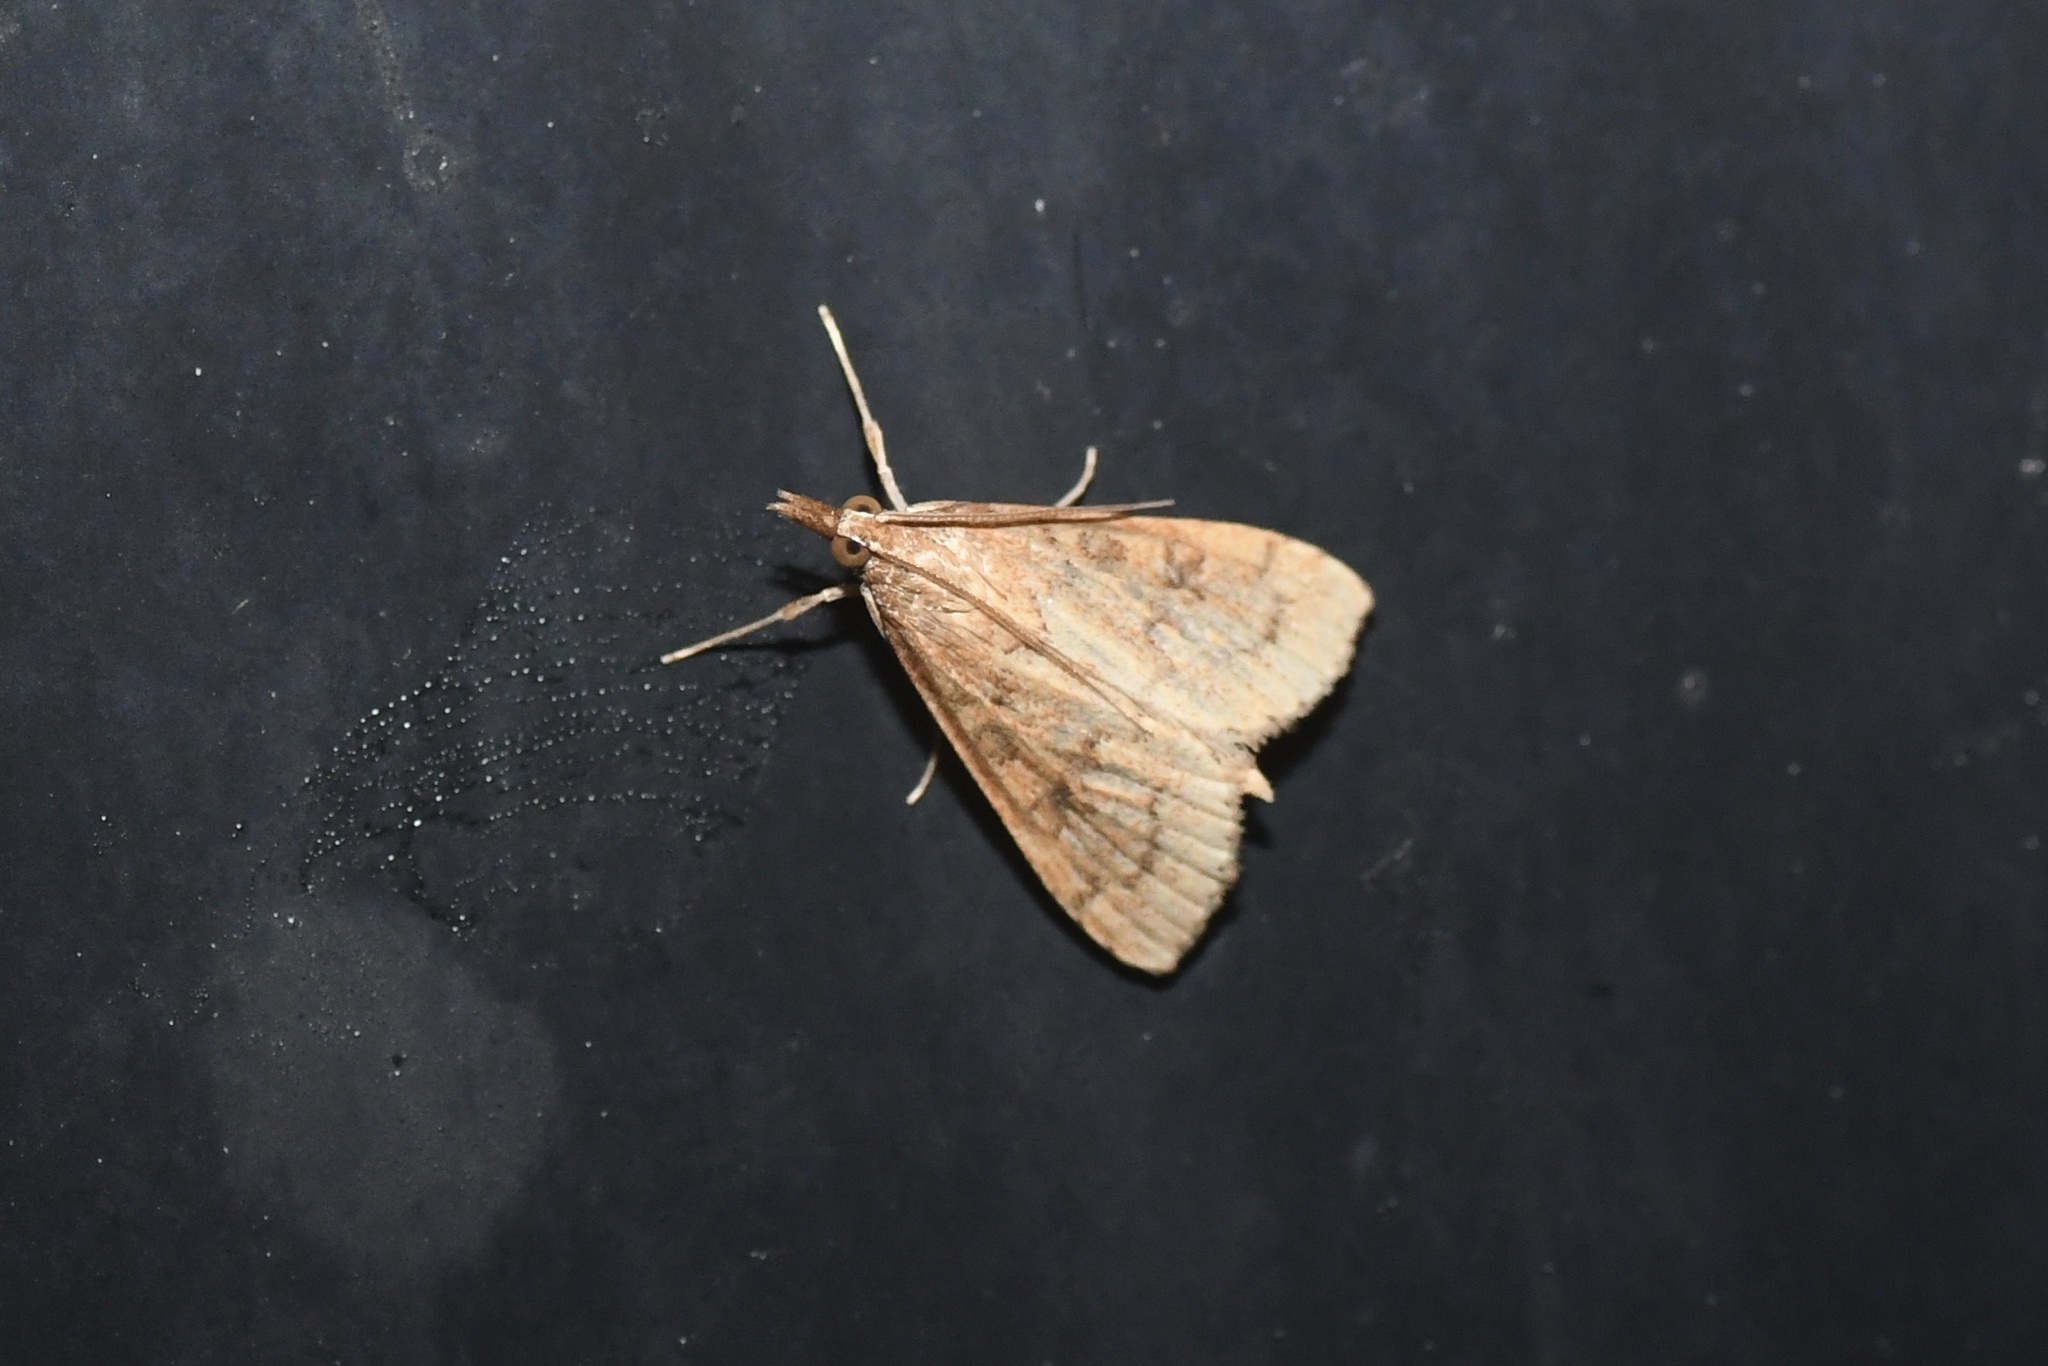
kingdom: Animalia
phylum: Arthropoda
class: Insecta
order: Lepidoptera
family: Crambidae
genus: Udea
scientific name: Udea rubigalis
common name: Celery leaftier moth
